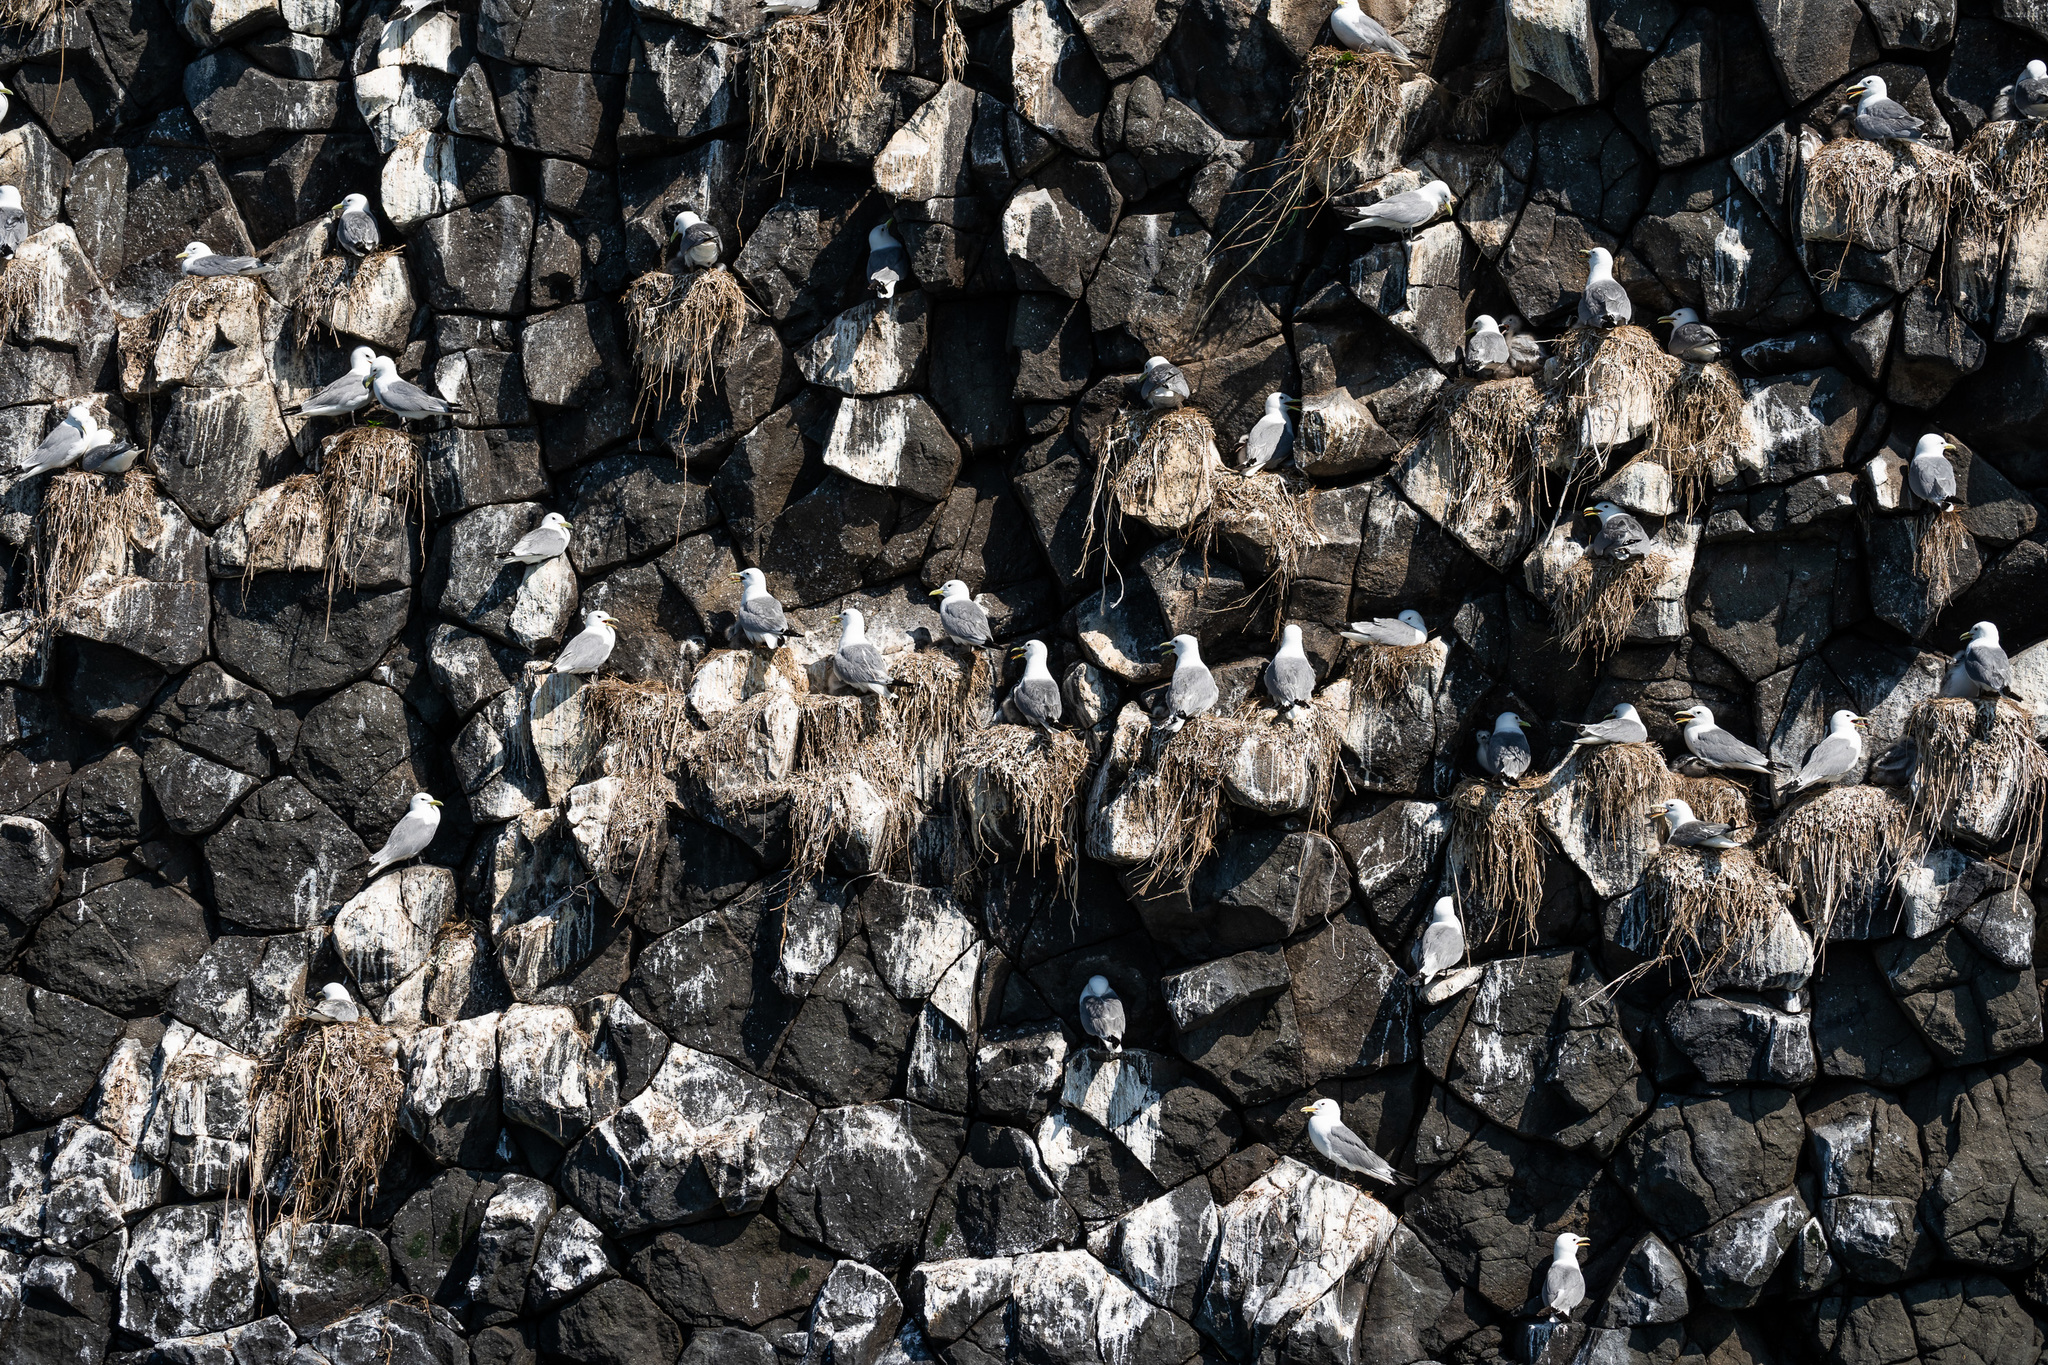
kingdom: Animalia
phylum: Chordata
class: Aves
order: Charadriiformes
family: Laridae
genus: Rissa
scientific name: Rissa tridactyla
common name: Black-legged kittiwake
